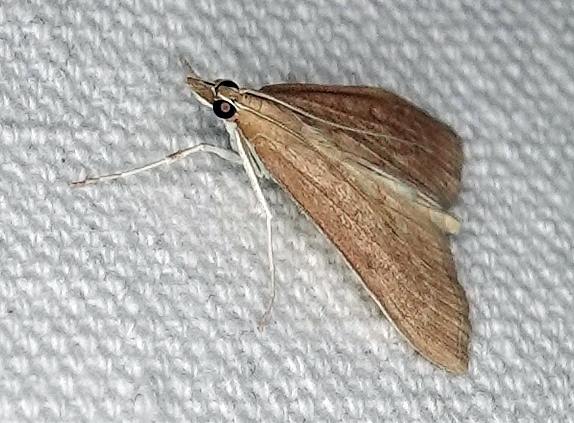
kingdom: Animalia
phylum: Arthropoda
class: Insecta
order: Lepidoptera
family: Crambidae
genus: Saucrobotys
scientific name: Saucrobotys futilalis
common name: Dogbane saucrobotys moth
